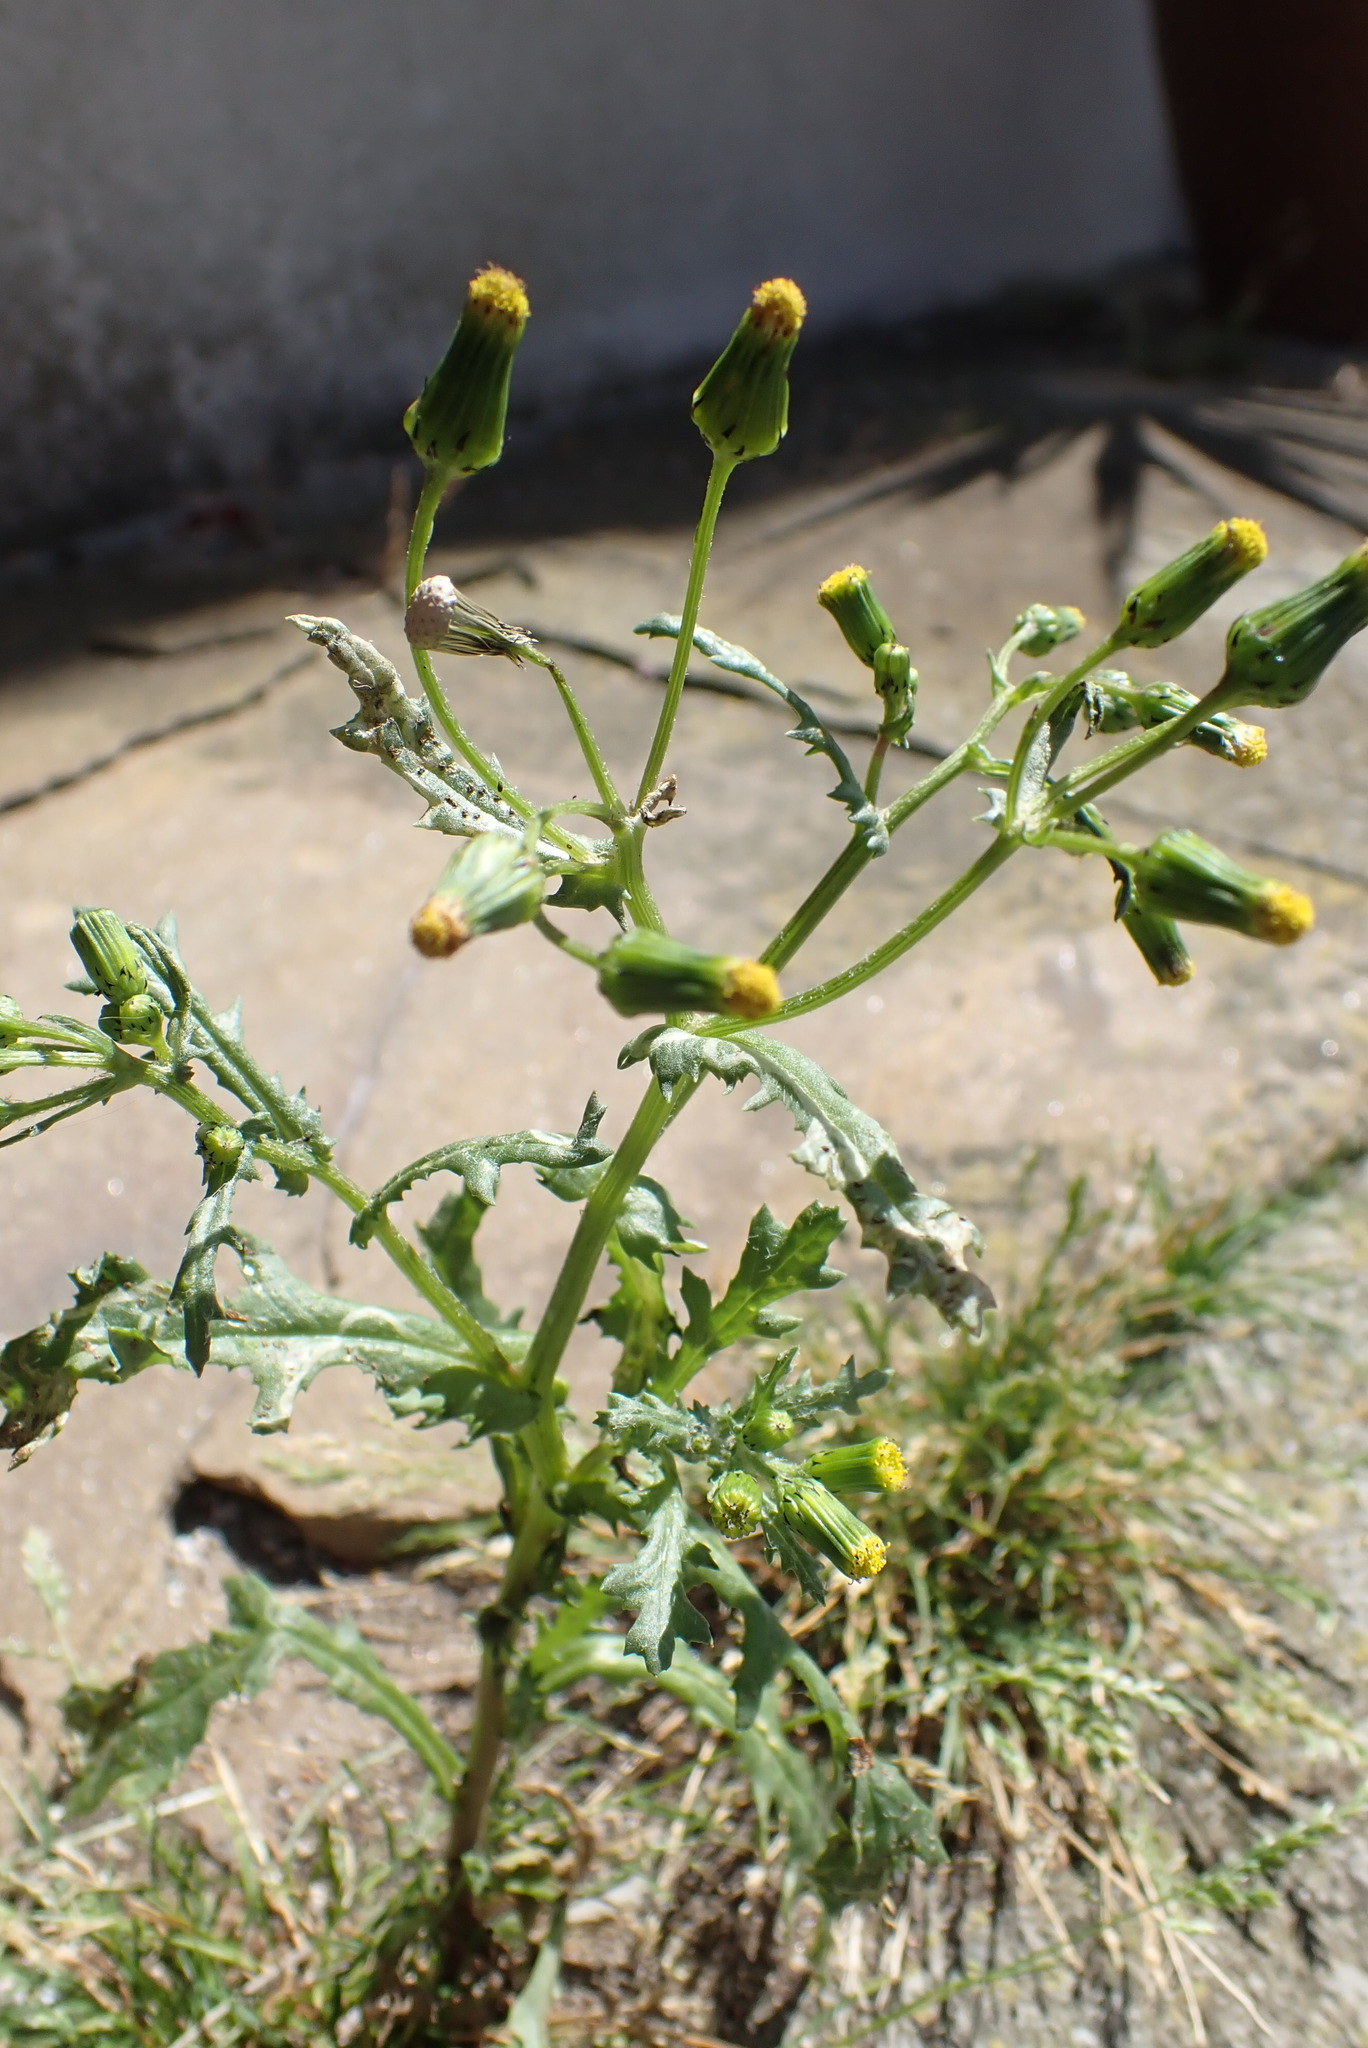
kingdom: Plantae
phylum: Tracheophyta
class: Magnoliopsida
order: Asterales
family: Asteraceae
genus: Senecio
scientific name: Senecio vulgaris
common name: Old-man-in-the-spring
